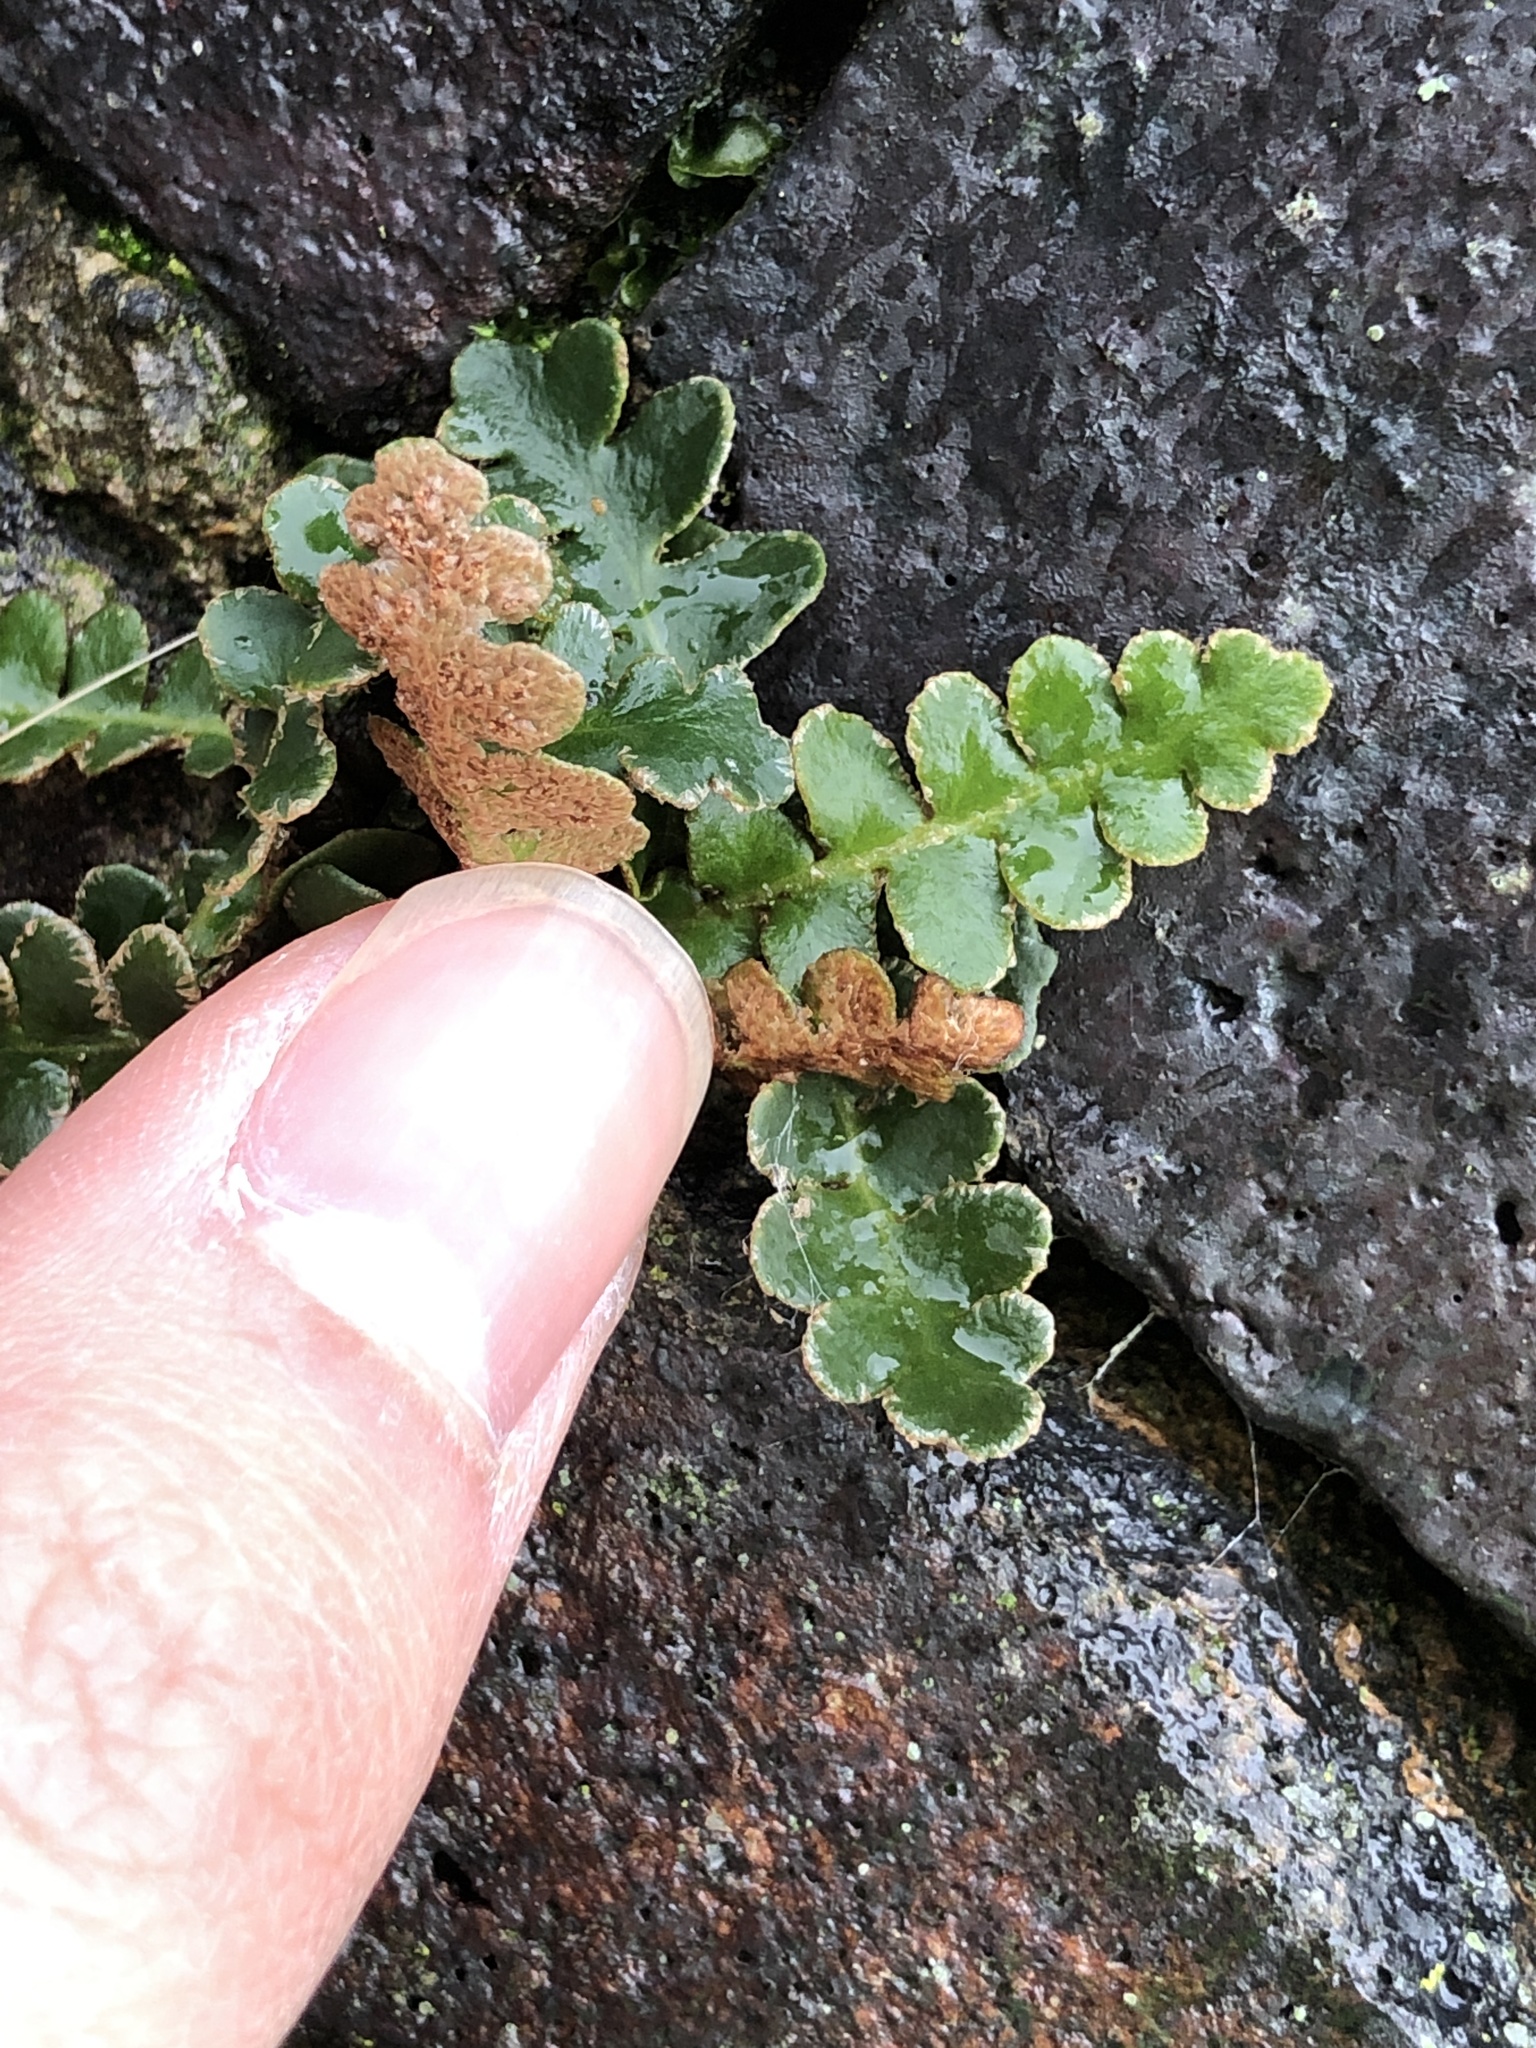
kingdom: Plantae
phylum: Tracheophyta
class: Polypodiopsida
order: Polypodiales
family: Aspleniaceae
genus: Asplenium
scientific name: Asplenium ceterach
